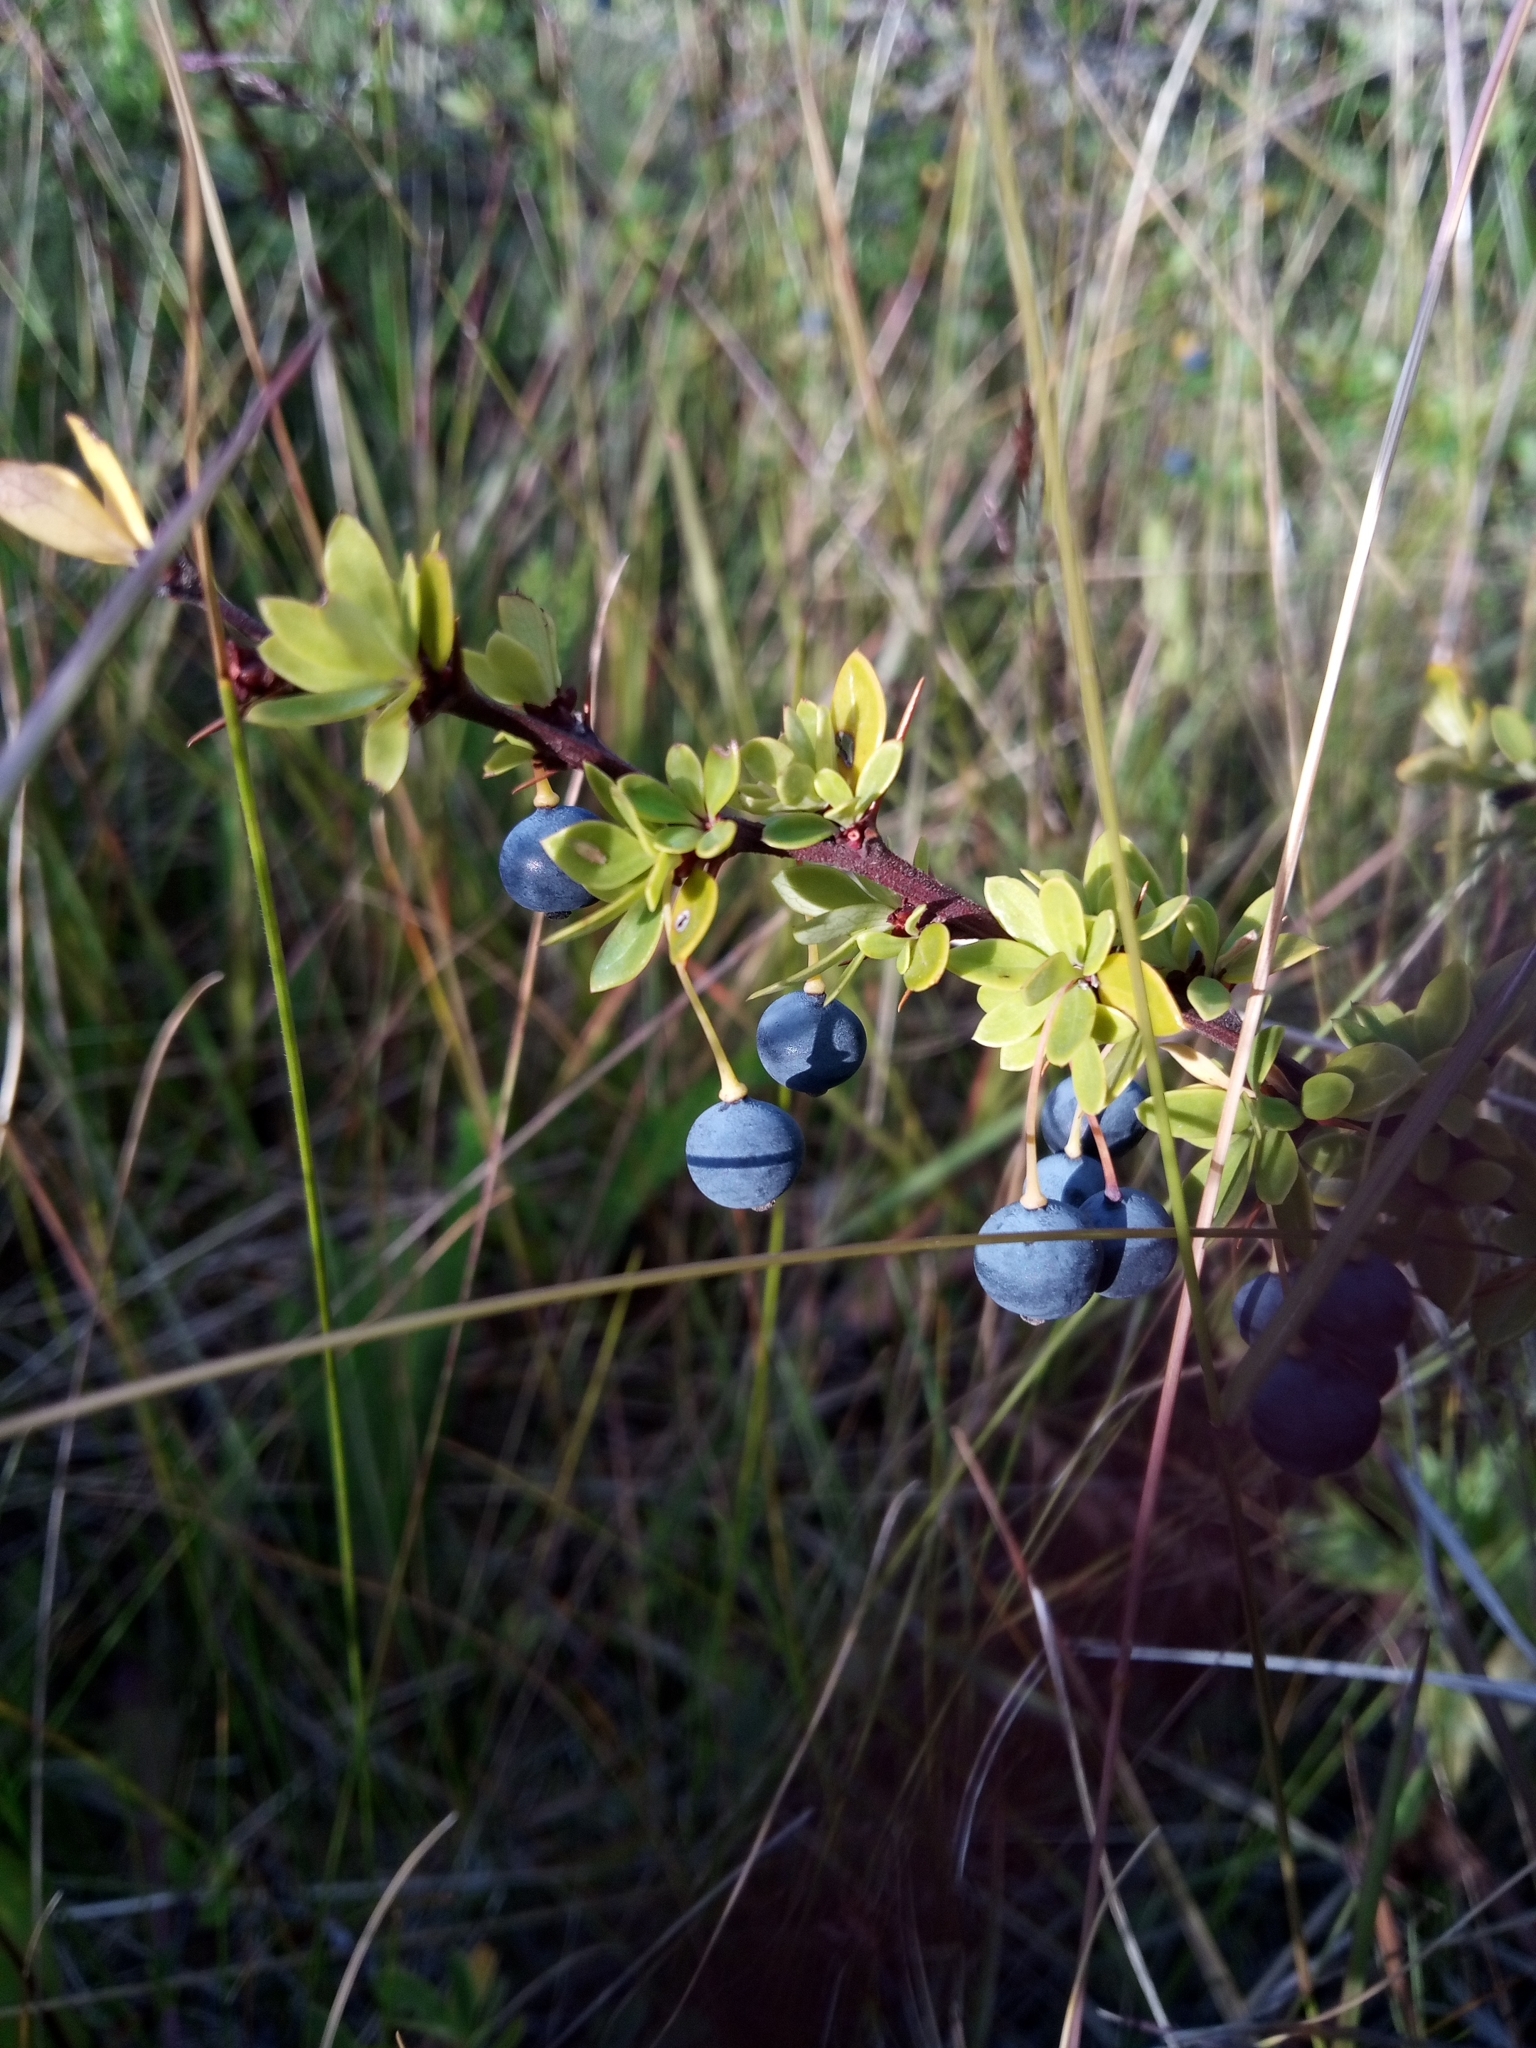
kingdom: Plantae
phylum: Tracheophyta
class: Magnoliopsida
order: Ranunculales
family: Berberidaceae
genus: Berberis
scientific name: Berberis microphylla
